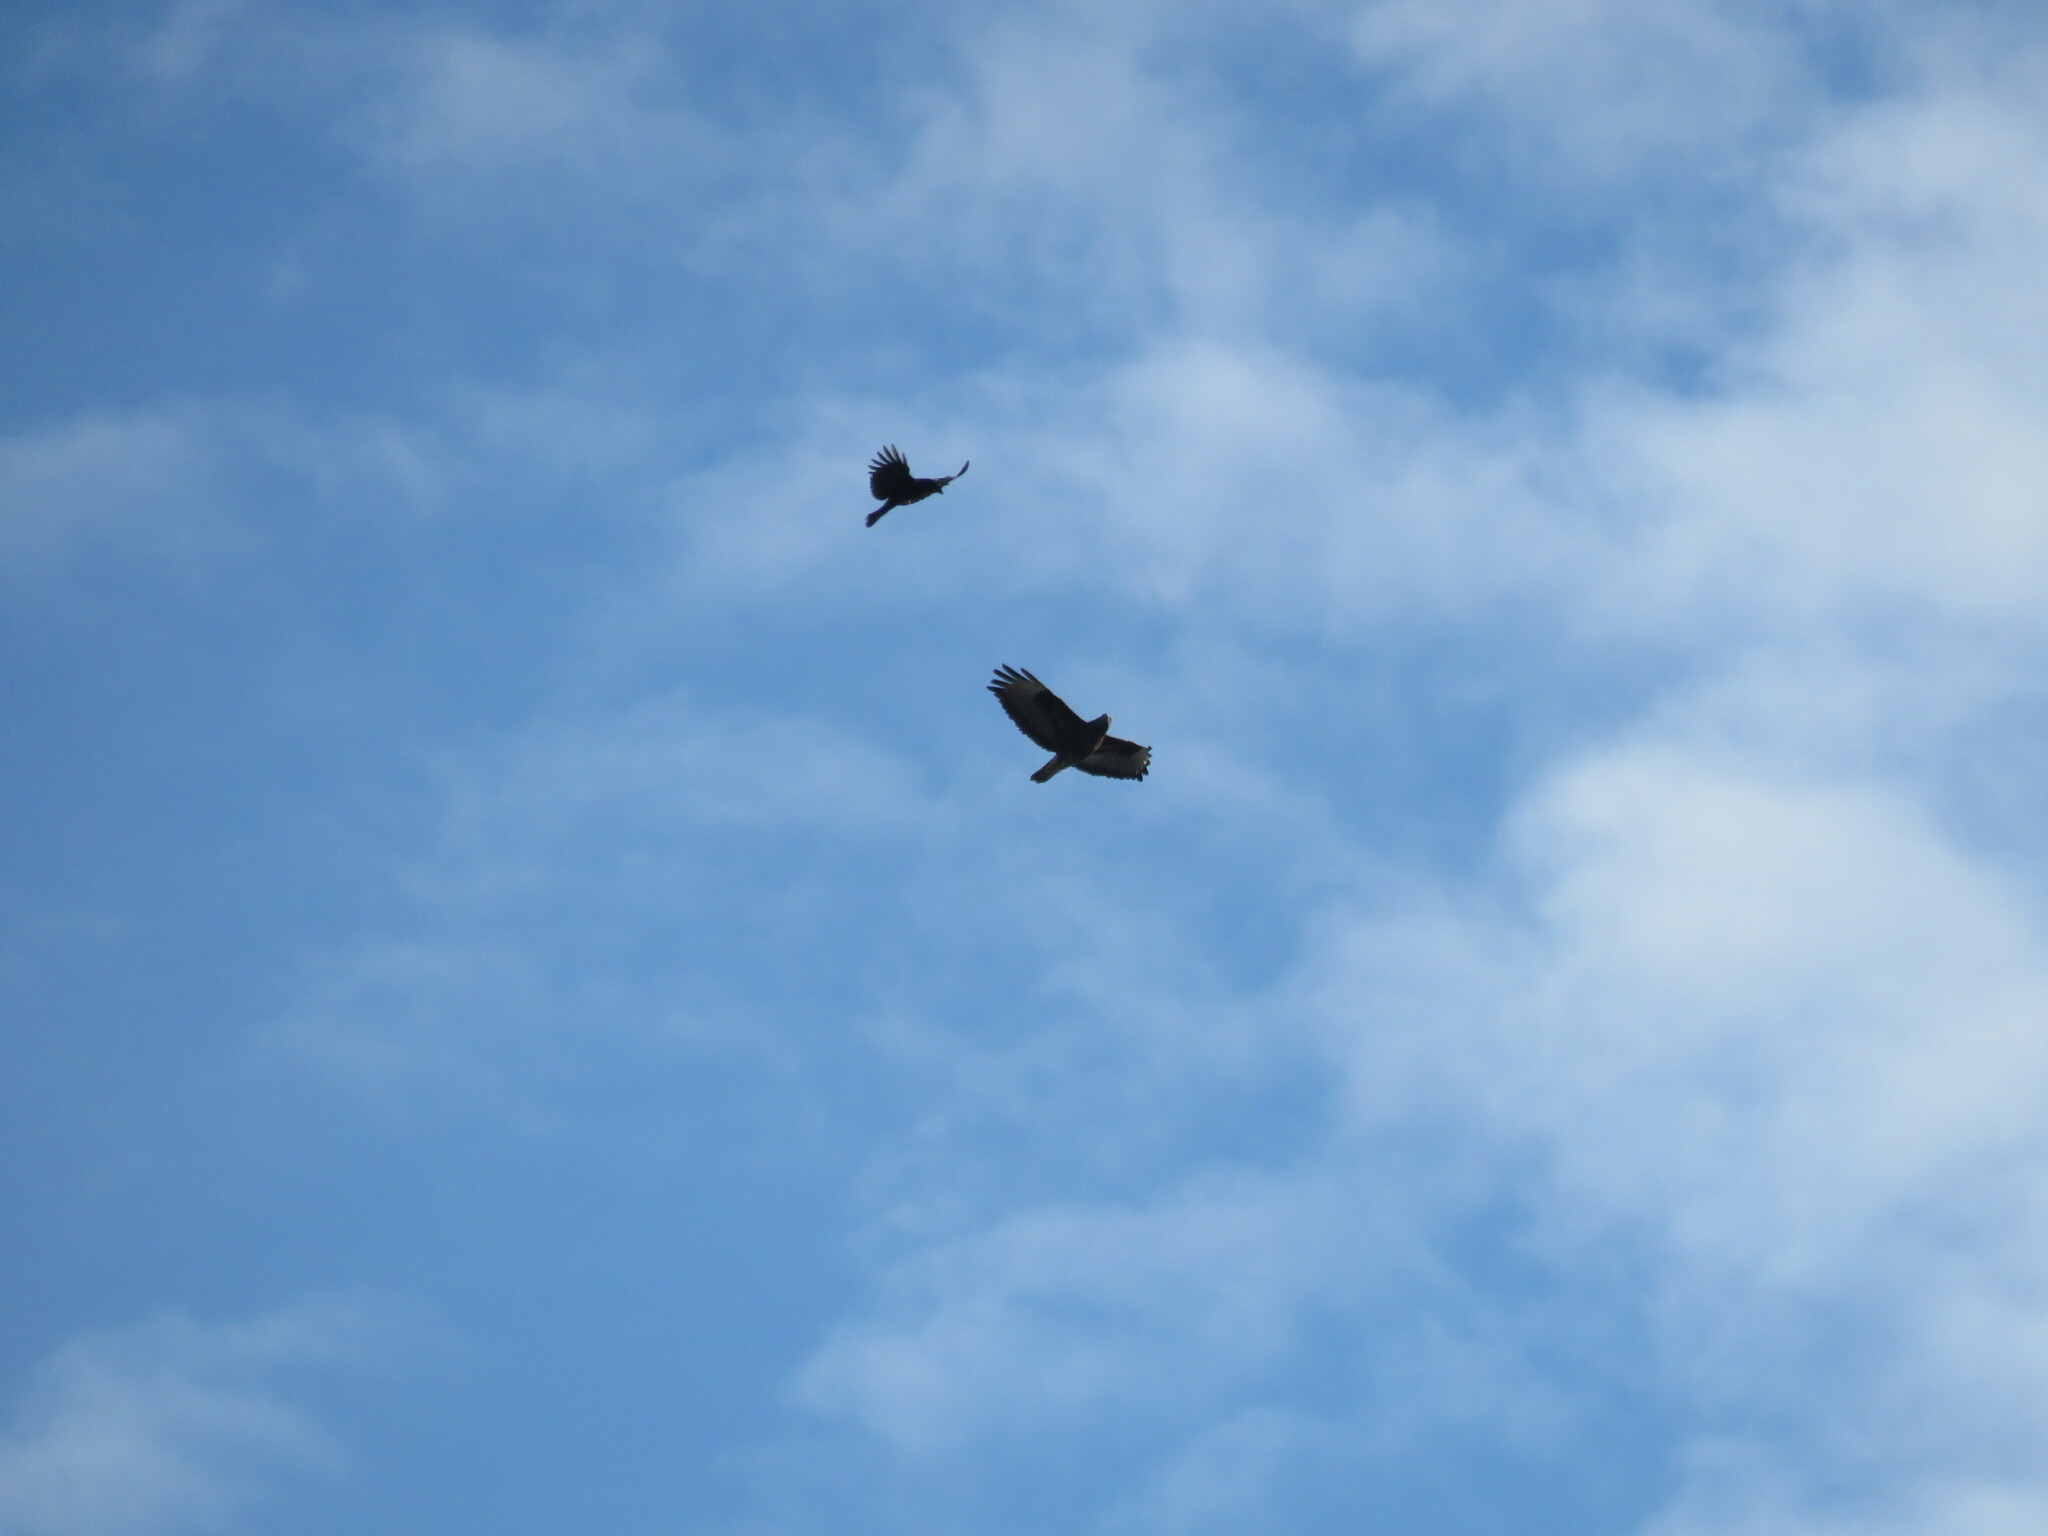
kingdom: Animalia
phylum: Chordata
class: Aves
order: Accipitriformes
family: Accipitridae
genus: Buteo
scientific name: Buteo buteo
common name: Common buzzard
